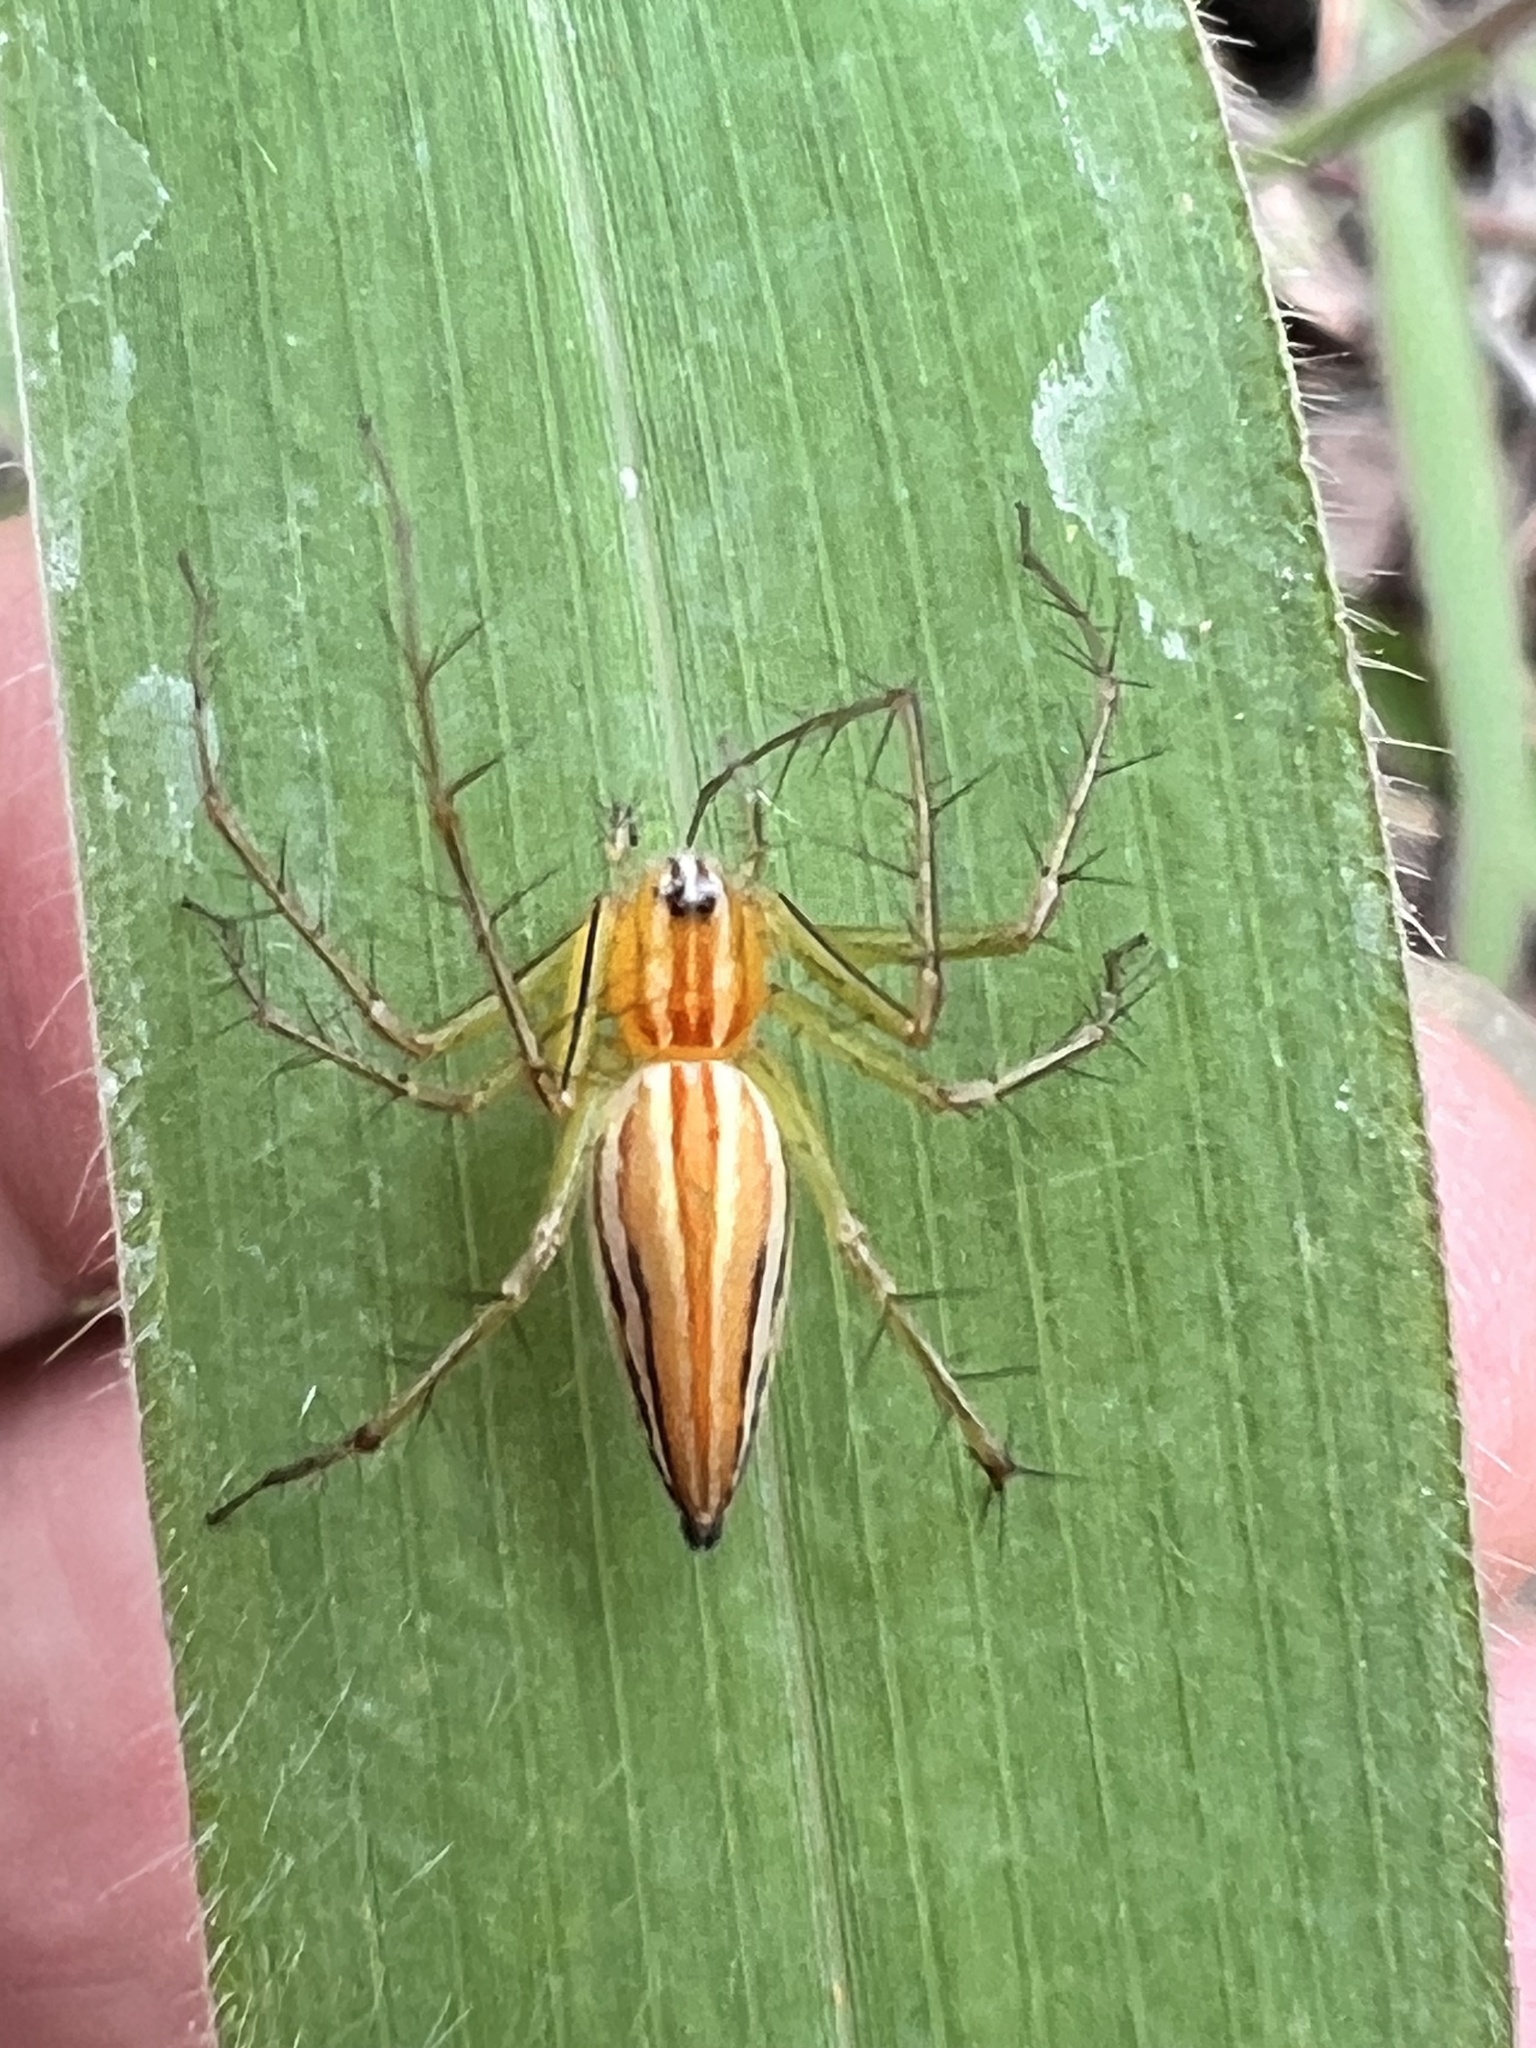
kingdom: Animalia
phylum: Arthropoda
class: Arachnida
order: Araneae
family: Oxyopidae
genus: Oxyopes
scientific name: Oxyopes macilentus
